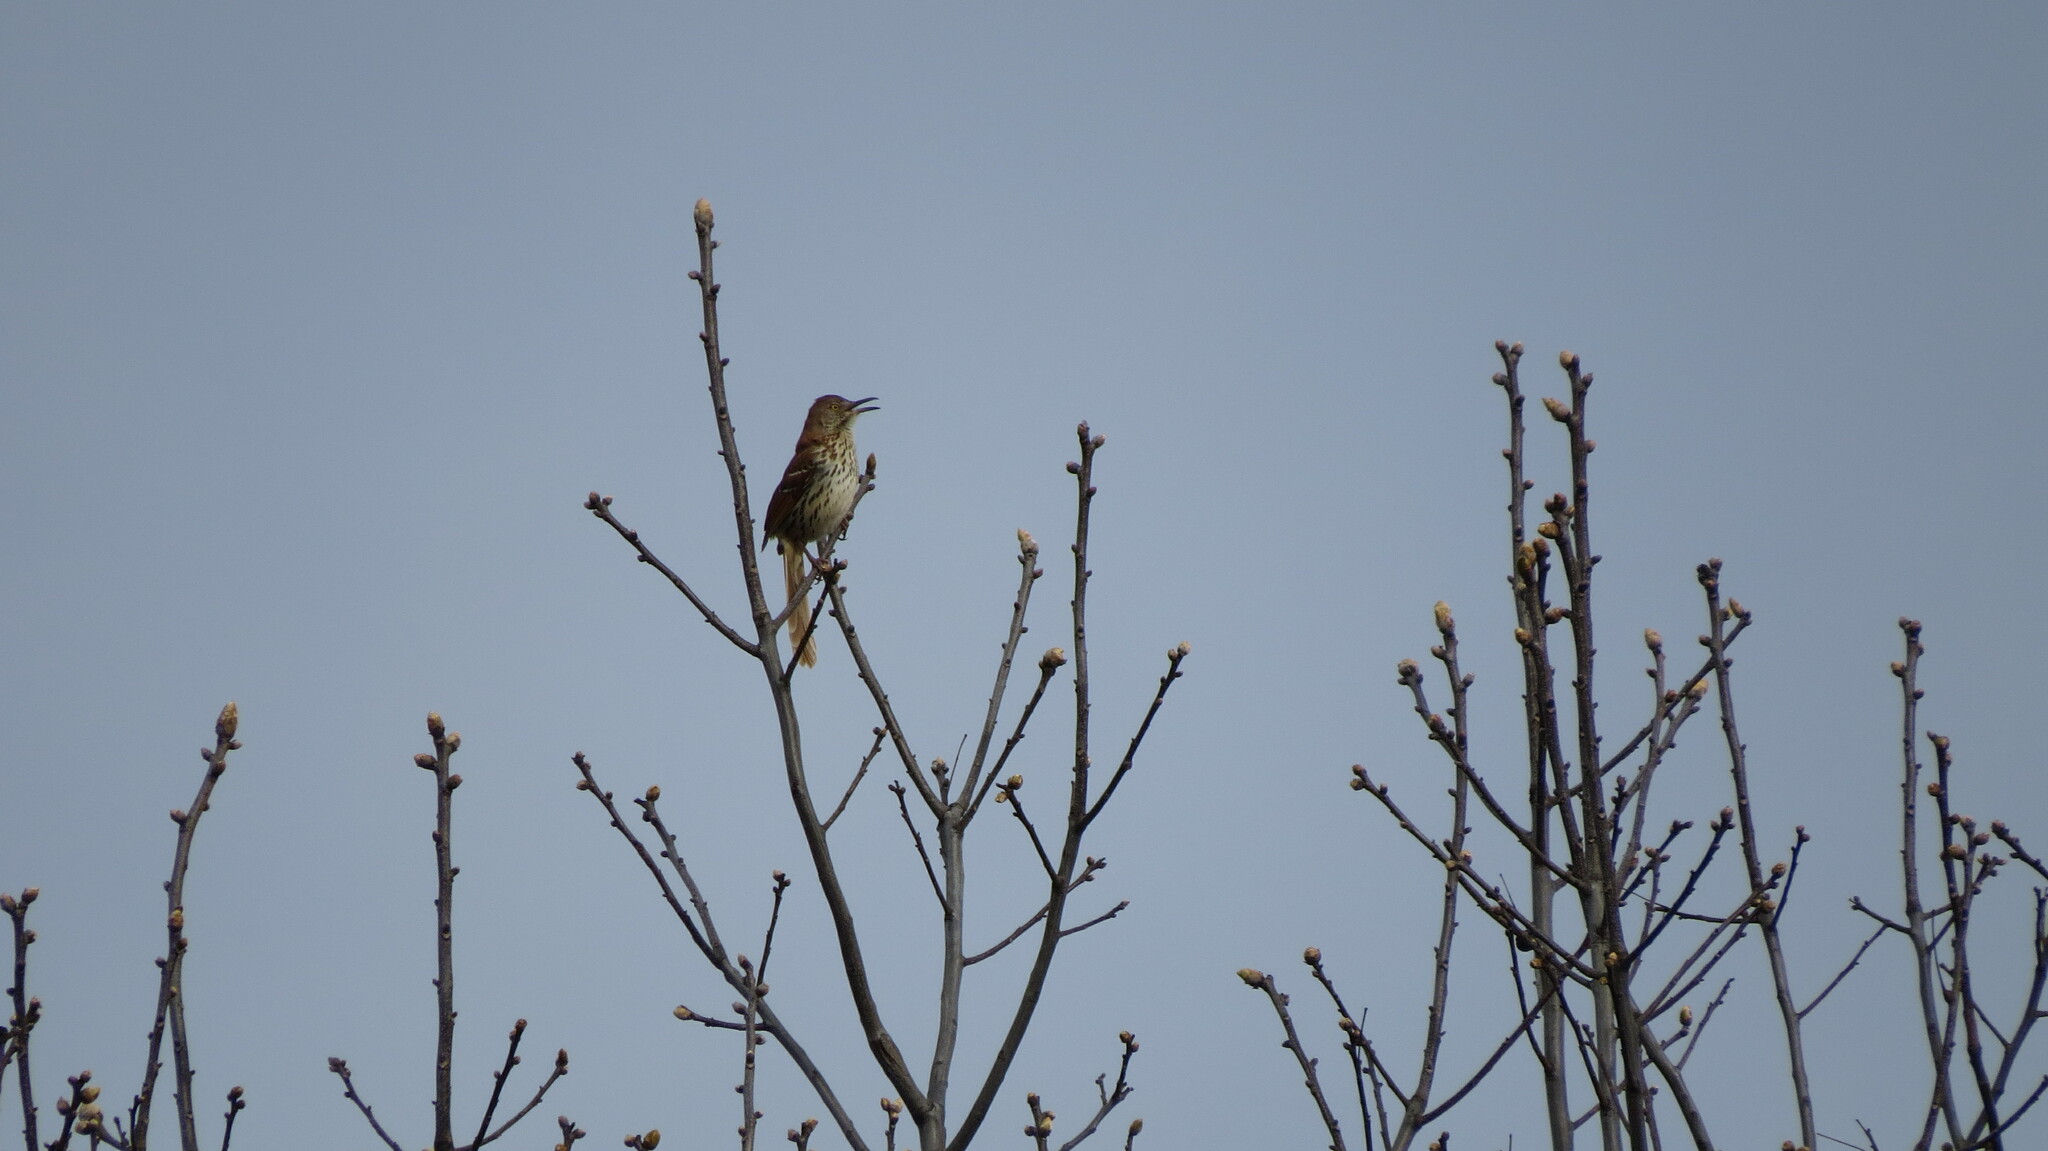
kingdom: Animalia
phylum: Chordata
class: Aves
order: Passeriformes
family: Mimidae
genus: Toxostoma
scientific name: Toxostoma rufum
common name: Brown thrasher
